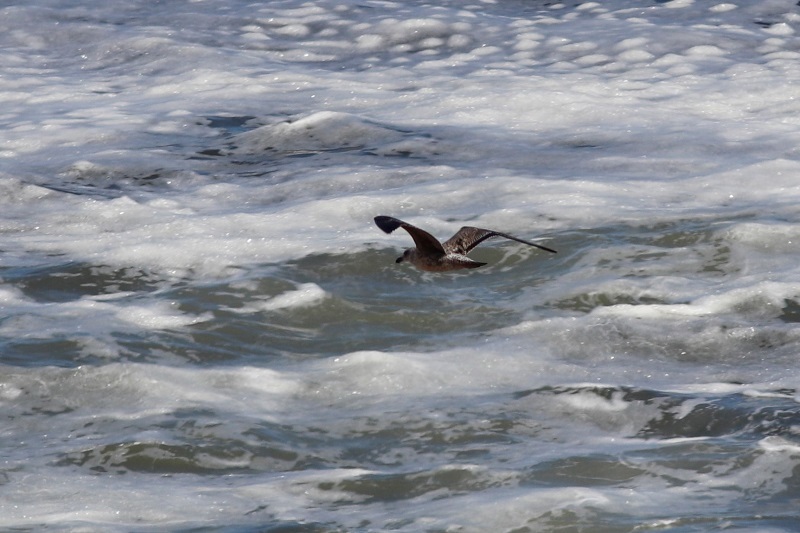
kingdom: Animalia
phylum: Chordata
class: Aves
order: Charadriiformes
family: Laridae
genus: Larus
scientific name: Larus dominicanus
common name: Kelp gull
